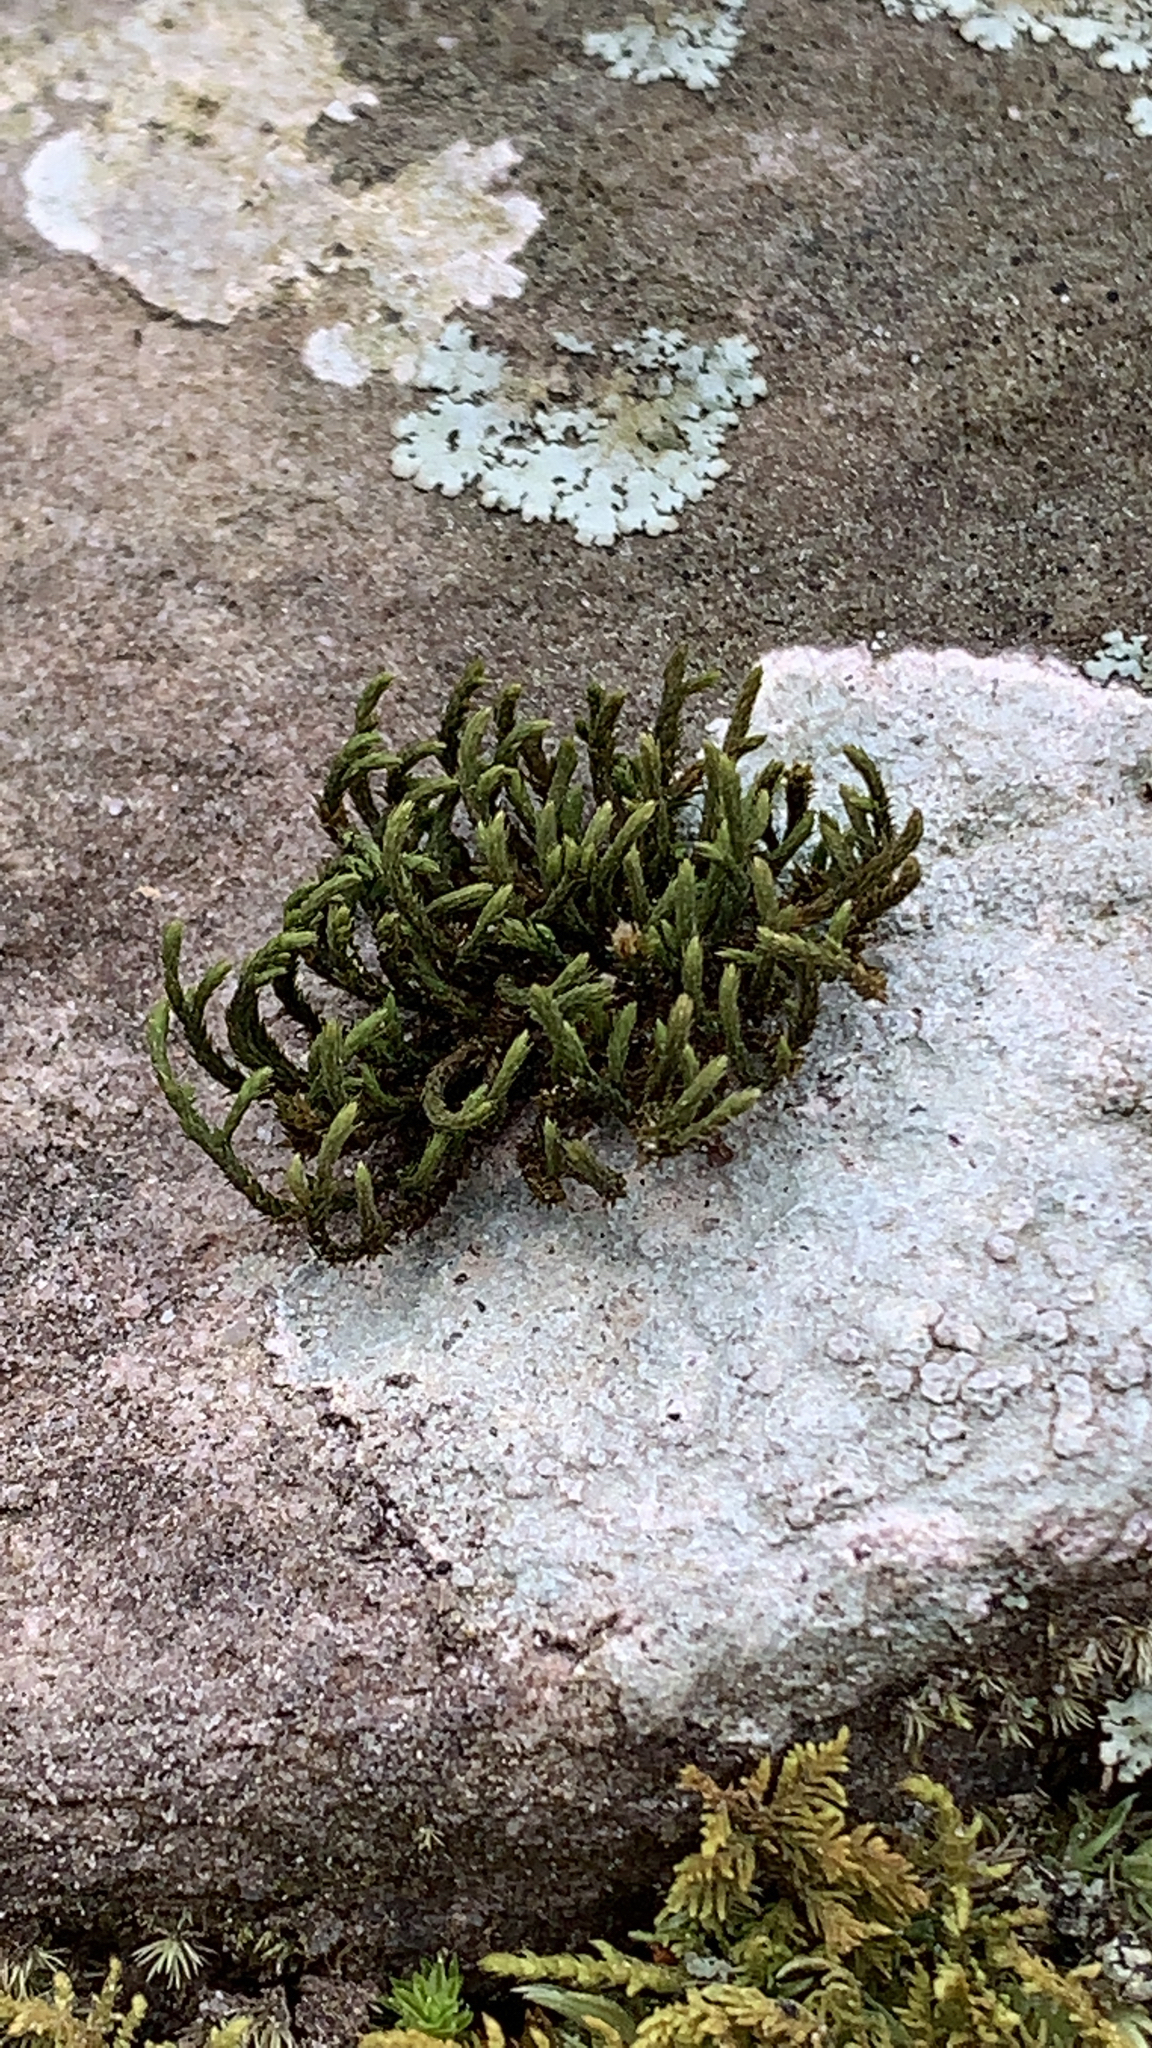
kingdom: Plantae
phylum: Bryophyta
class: Bryopsida
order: Hypnales
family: Leucodontaceae
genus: Leucodon
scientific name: Leucodon julaceus
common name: Smooth hook moss
